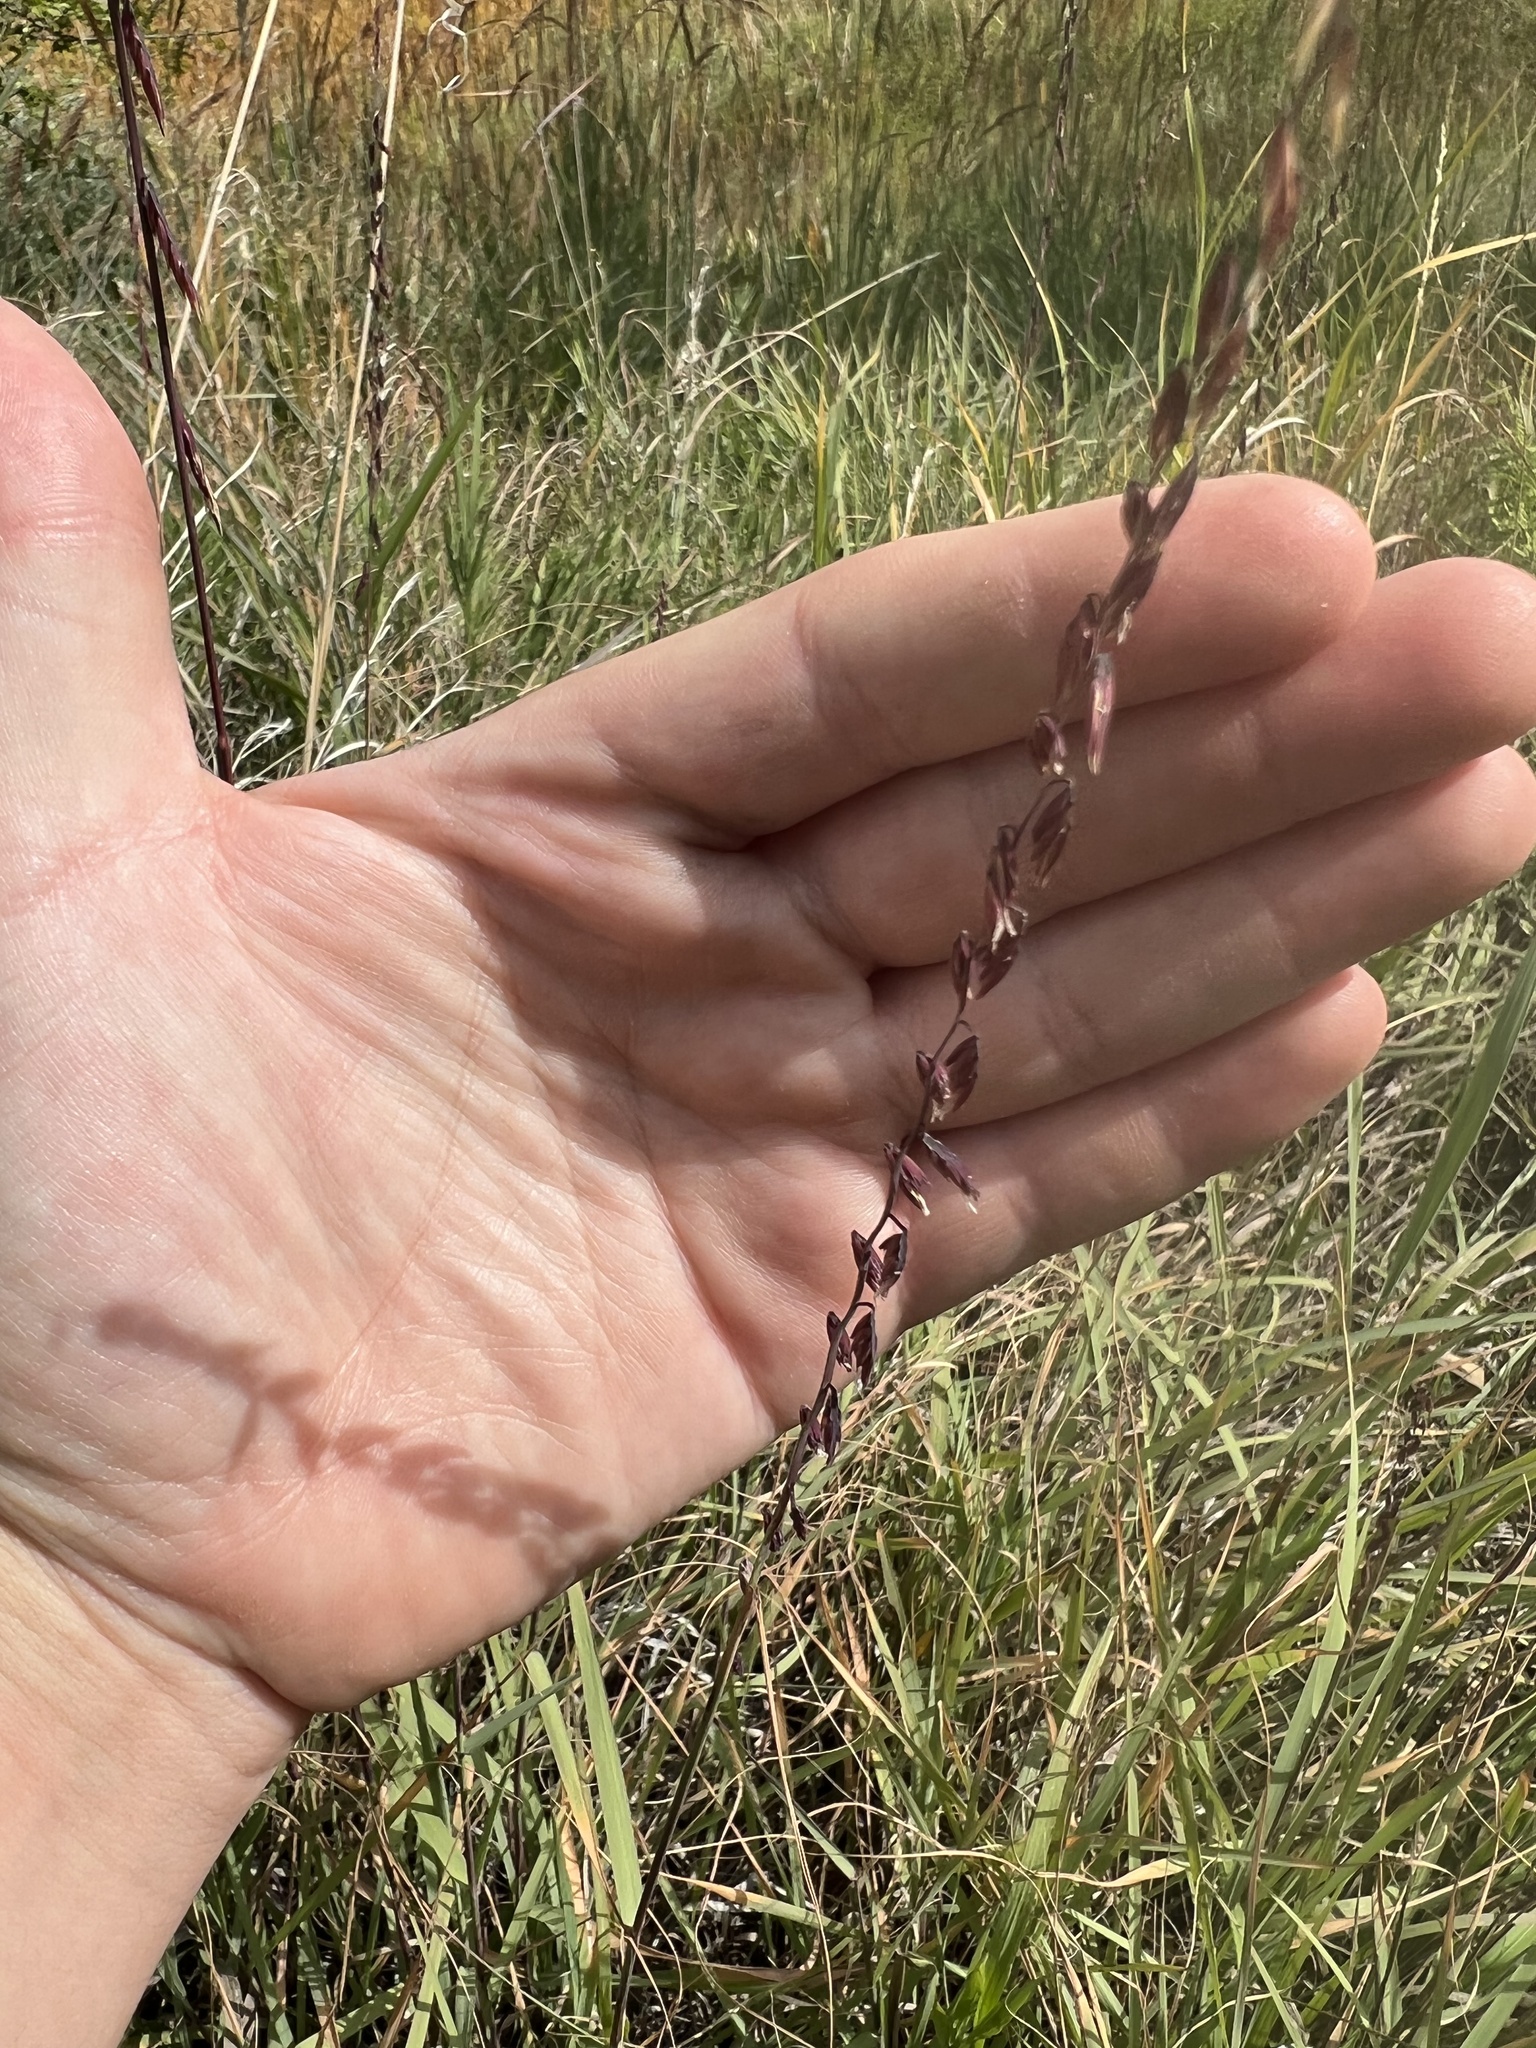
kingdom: Plantae
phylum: Tracheophyta
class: Liliopsida
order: Poales
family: Poaceae
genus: Bouteloua
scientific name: Bouteloua curtipendula
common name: Side-oats grama
